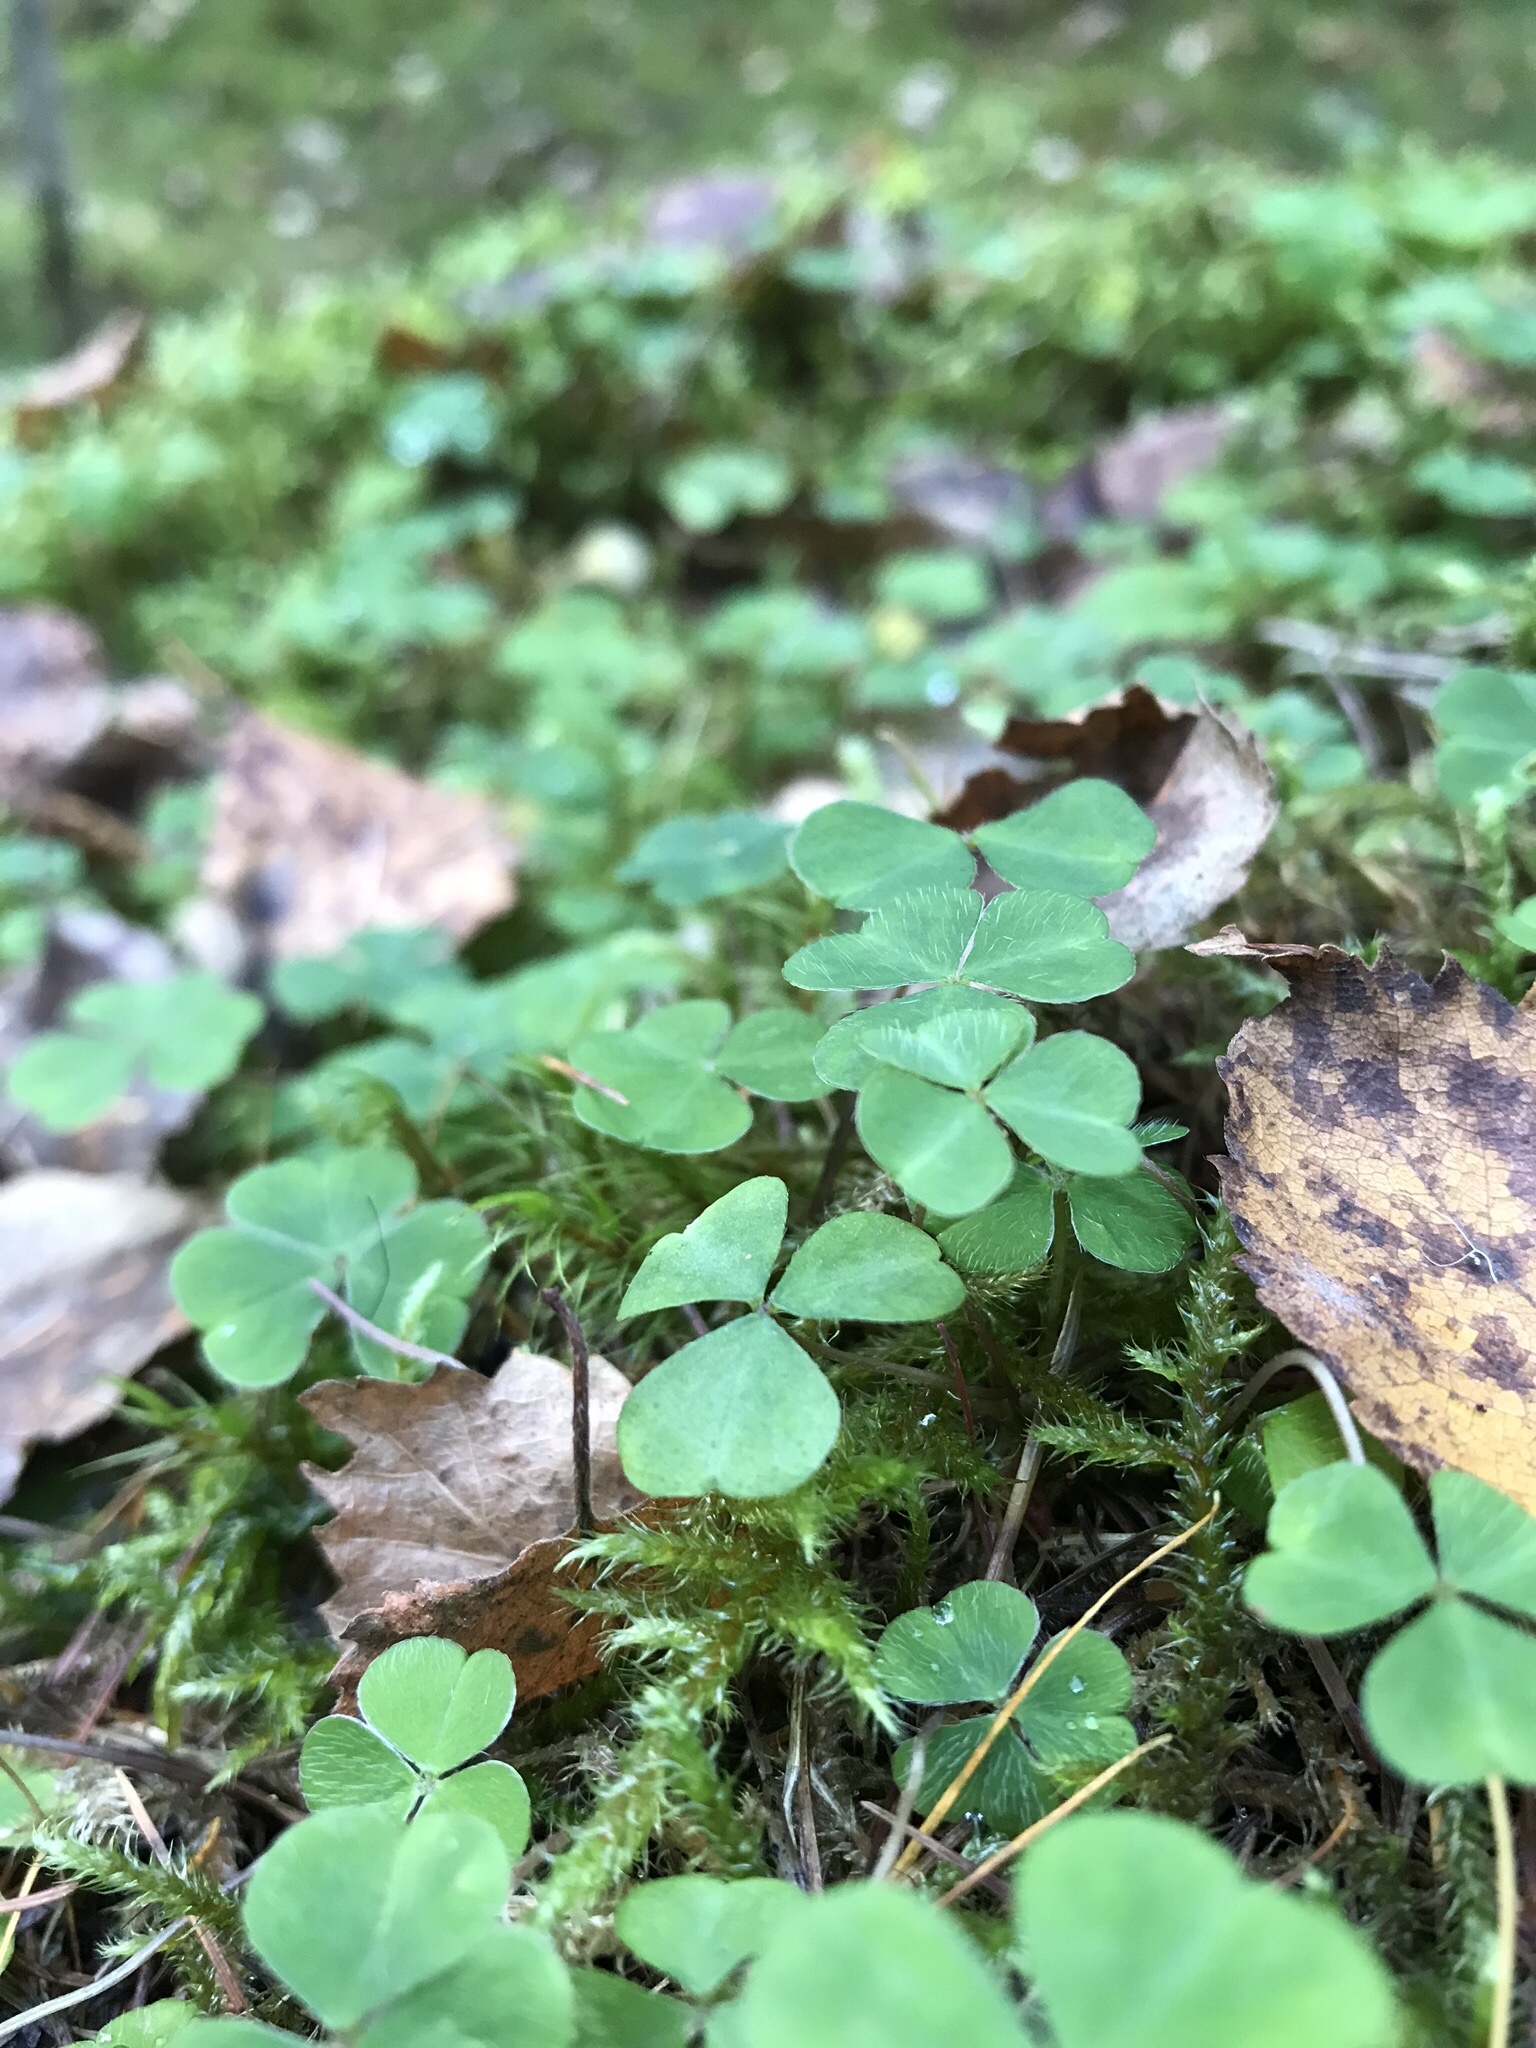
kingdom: Plantae
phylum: Tracheophyta
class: Magnoliopsida
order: Oxalidales
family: Oxalidaceae
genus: Oxalis
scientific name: Oxalis acetosella
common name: Wood-sorrel
